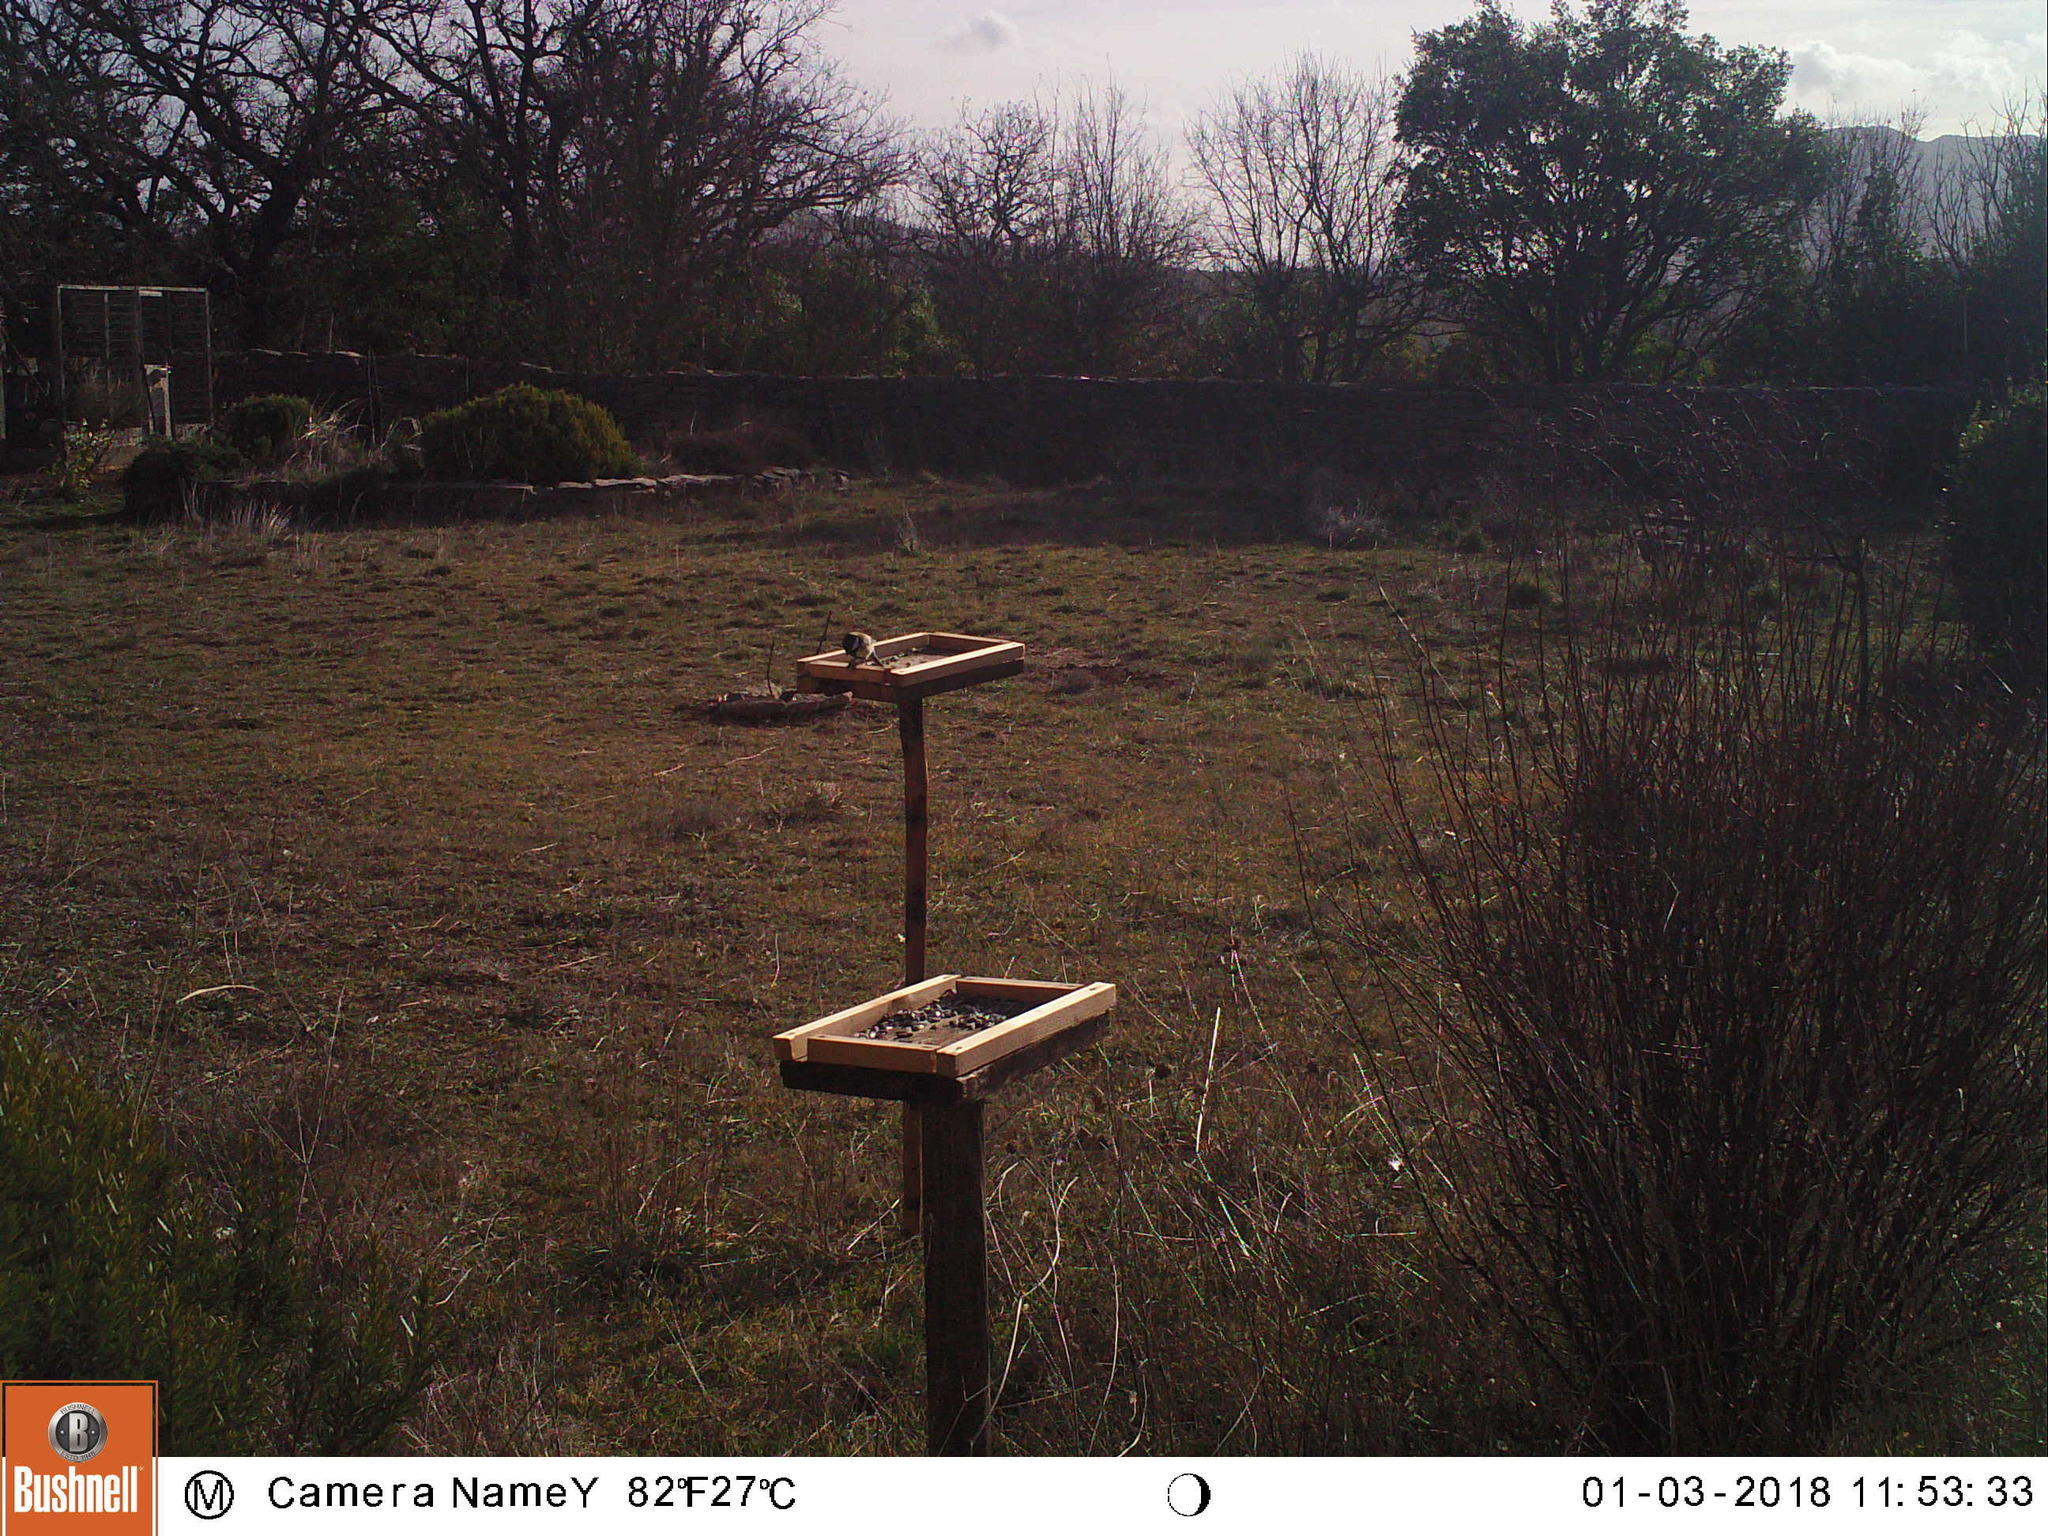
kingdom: Animalia
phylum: Chordata
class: Aves
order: Passeriformes
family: Paridae
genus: Parus
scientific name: Parus major
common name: Great tit
